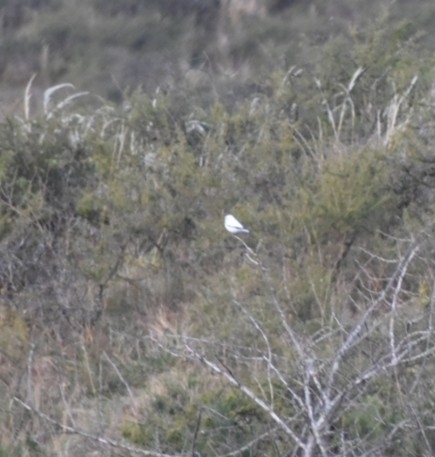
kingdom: Animalia
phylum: Chordata
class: Aves
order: Passeriformes
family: Tyrannidae
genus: Xolmis
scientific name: Xolmis irupero
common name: White monjita
